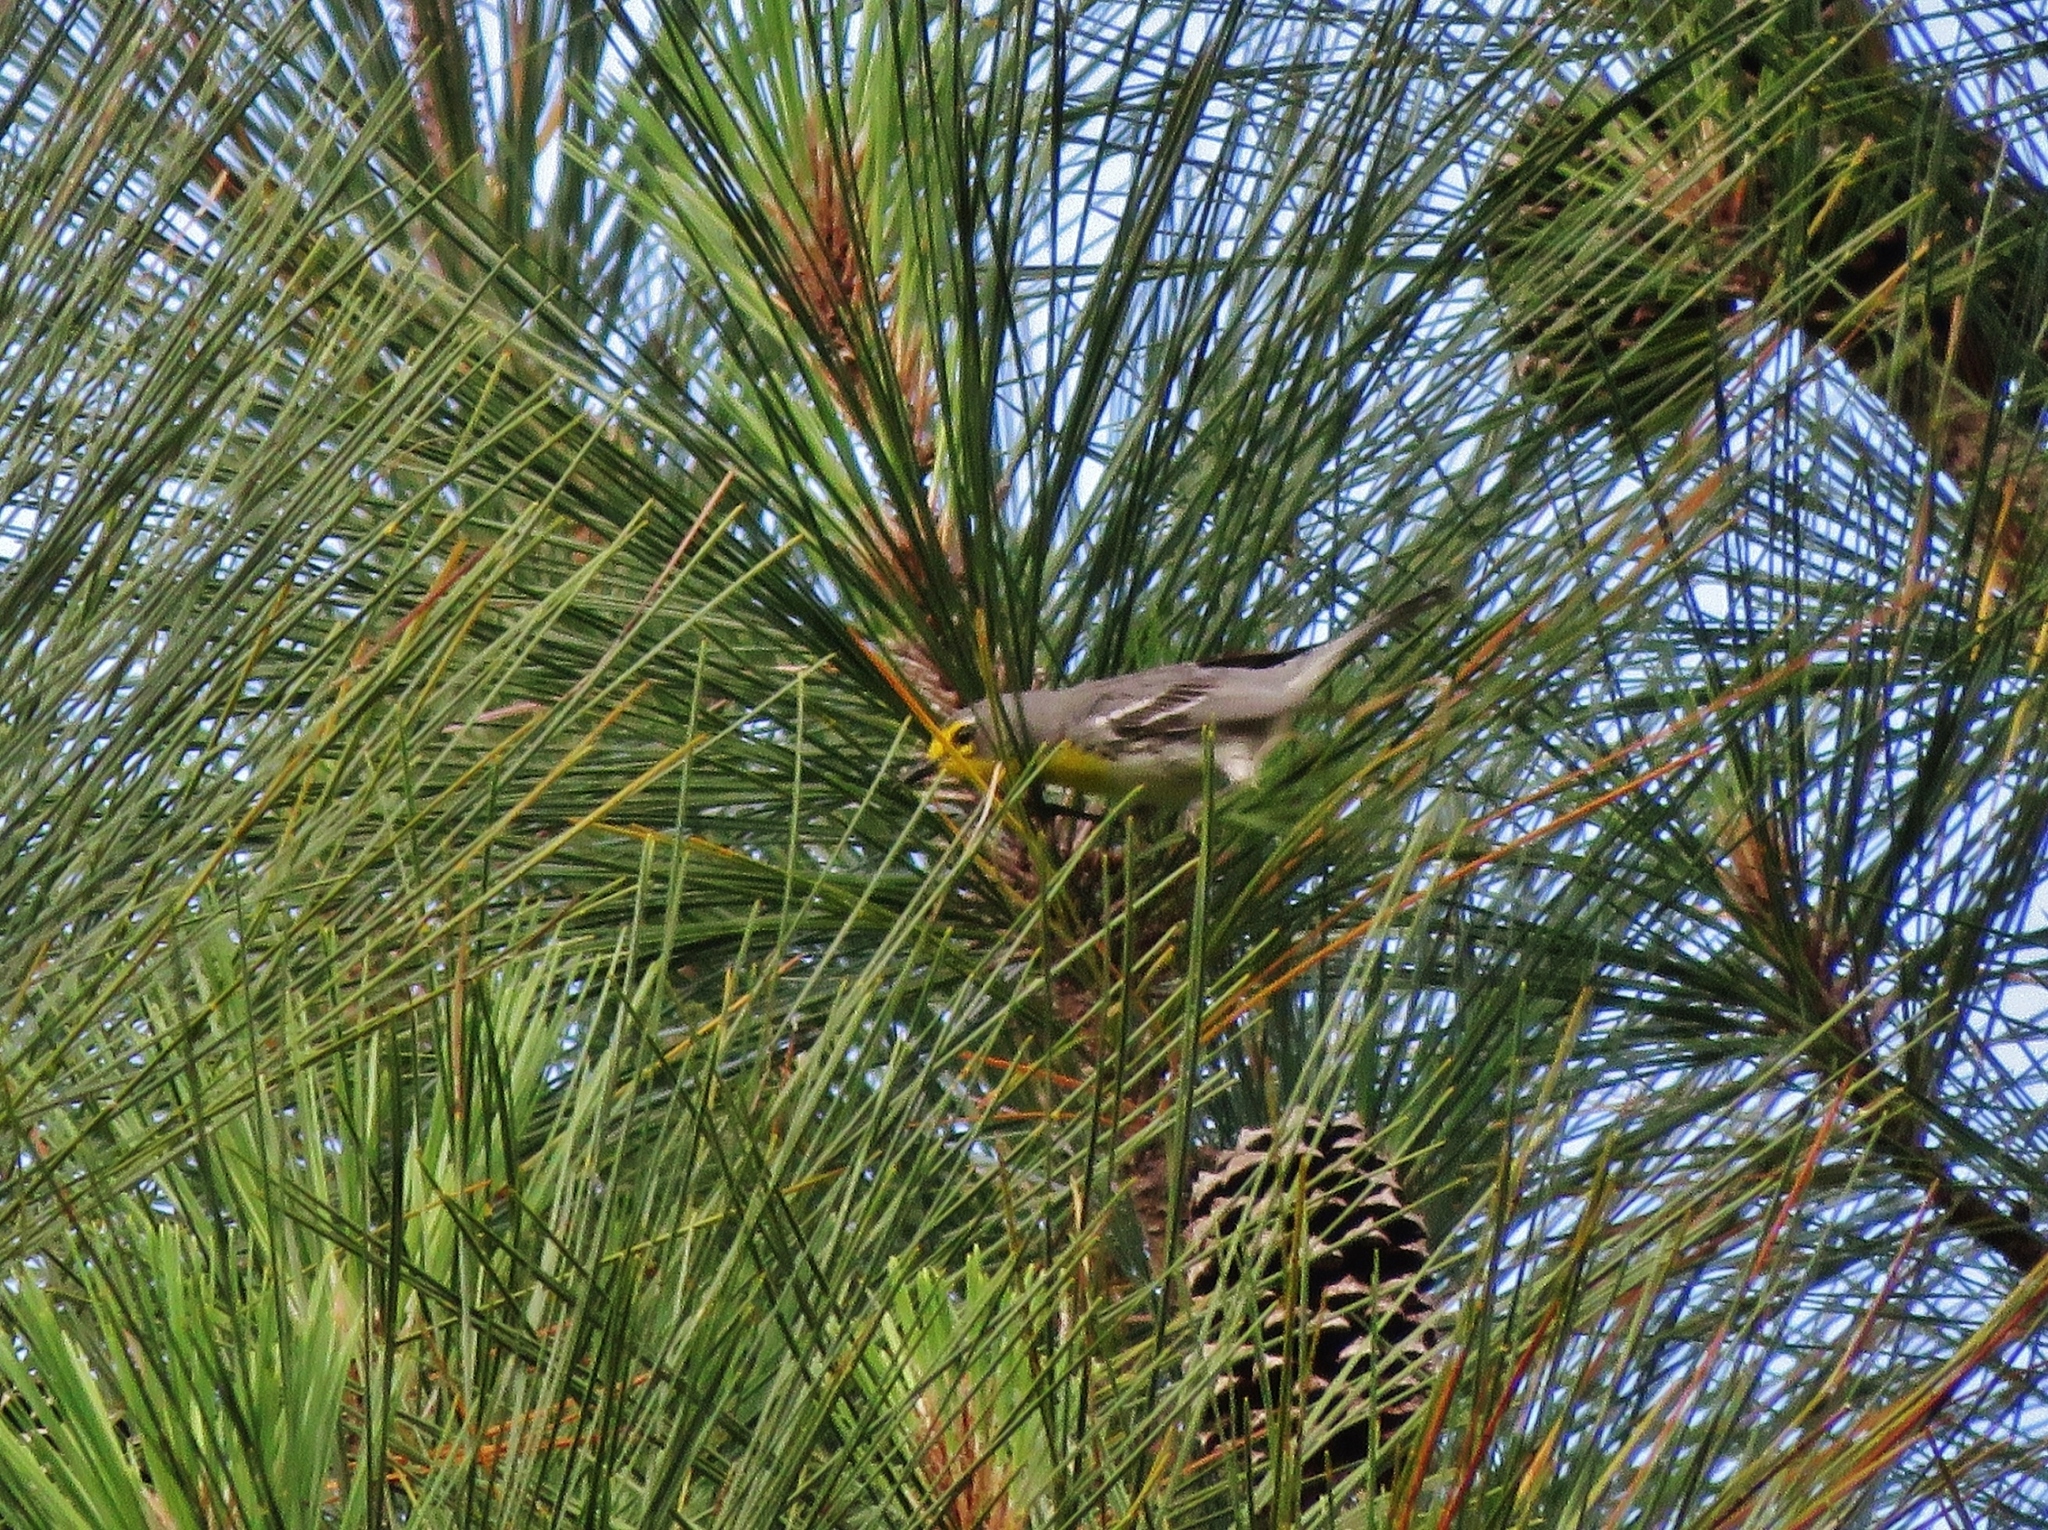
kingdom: Animalia
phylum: Chordata
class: Aves
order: Passeriformes
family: Parulidae
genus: Setophaga
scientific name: Setophaga graciae
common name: Grace's warbler
